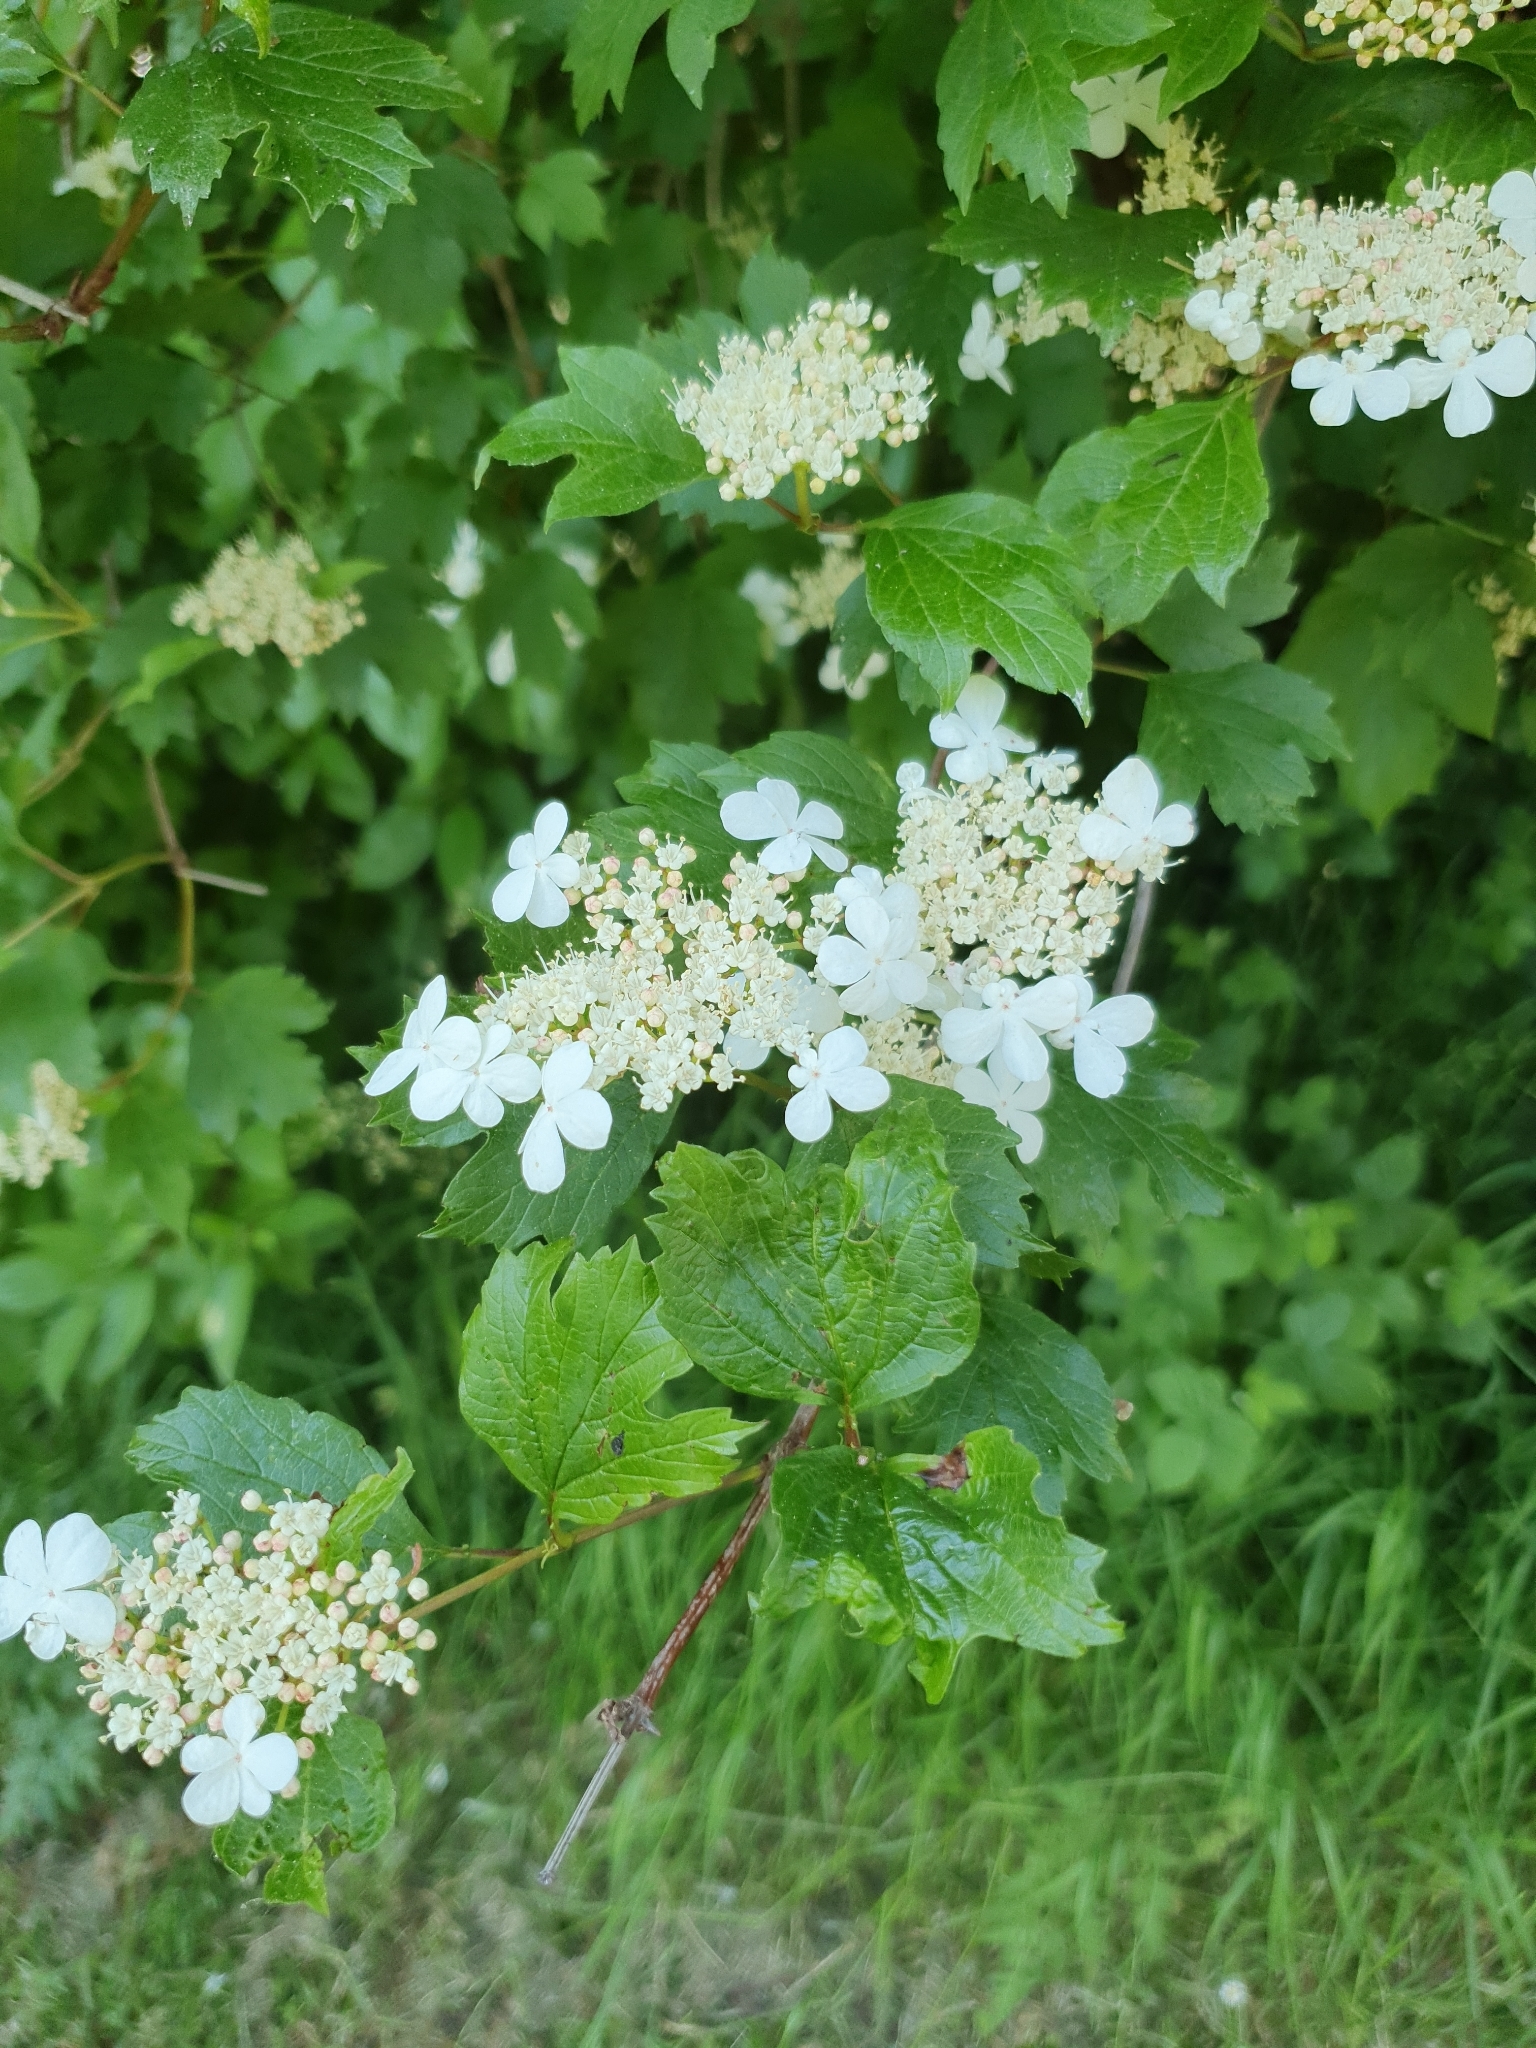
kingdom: Plantae
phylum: Tracheophyta
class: Magnoliopsida
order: Dipsacales
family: Viburnaceae
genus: Viburnum
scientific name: Viburnum opulus
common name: Guelder-rose
